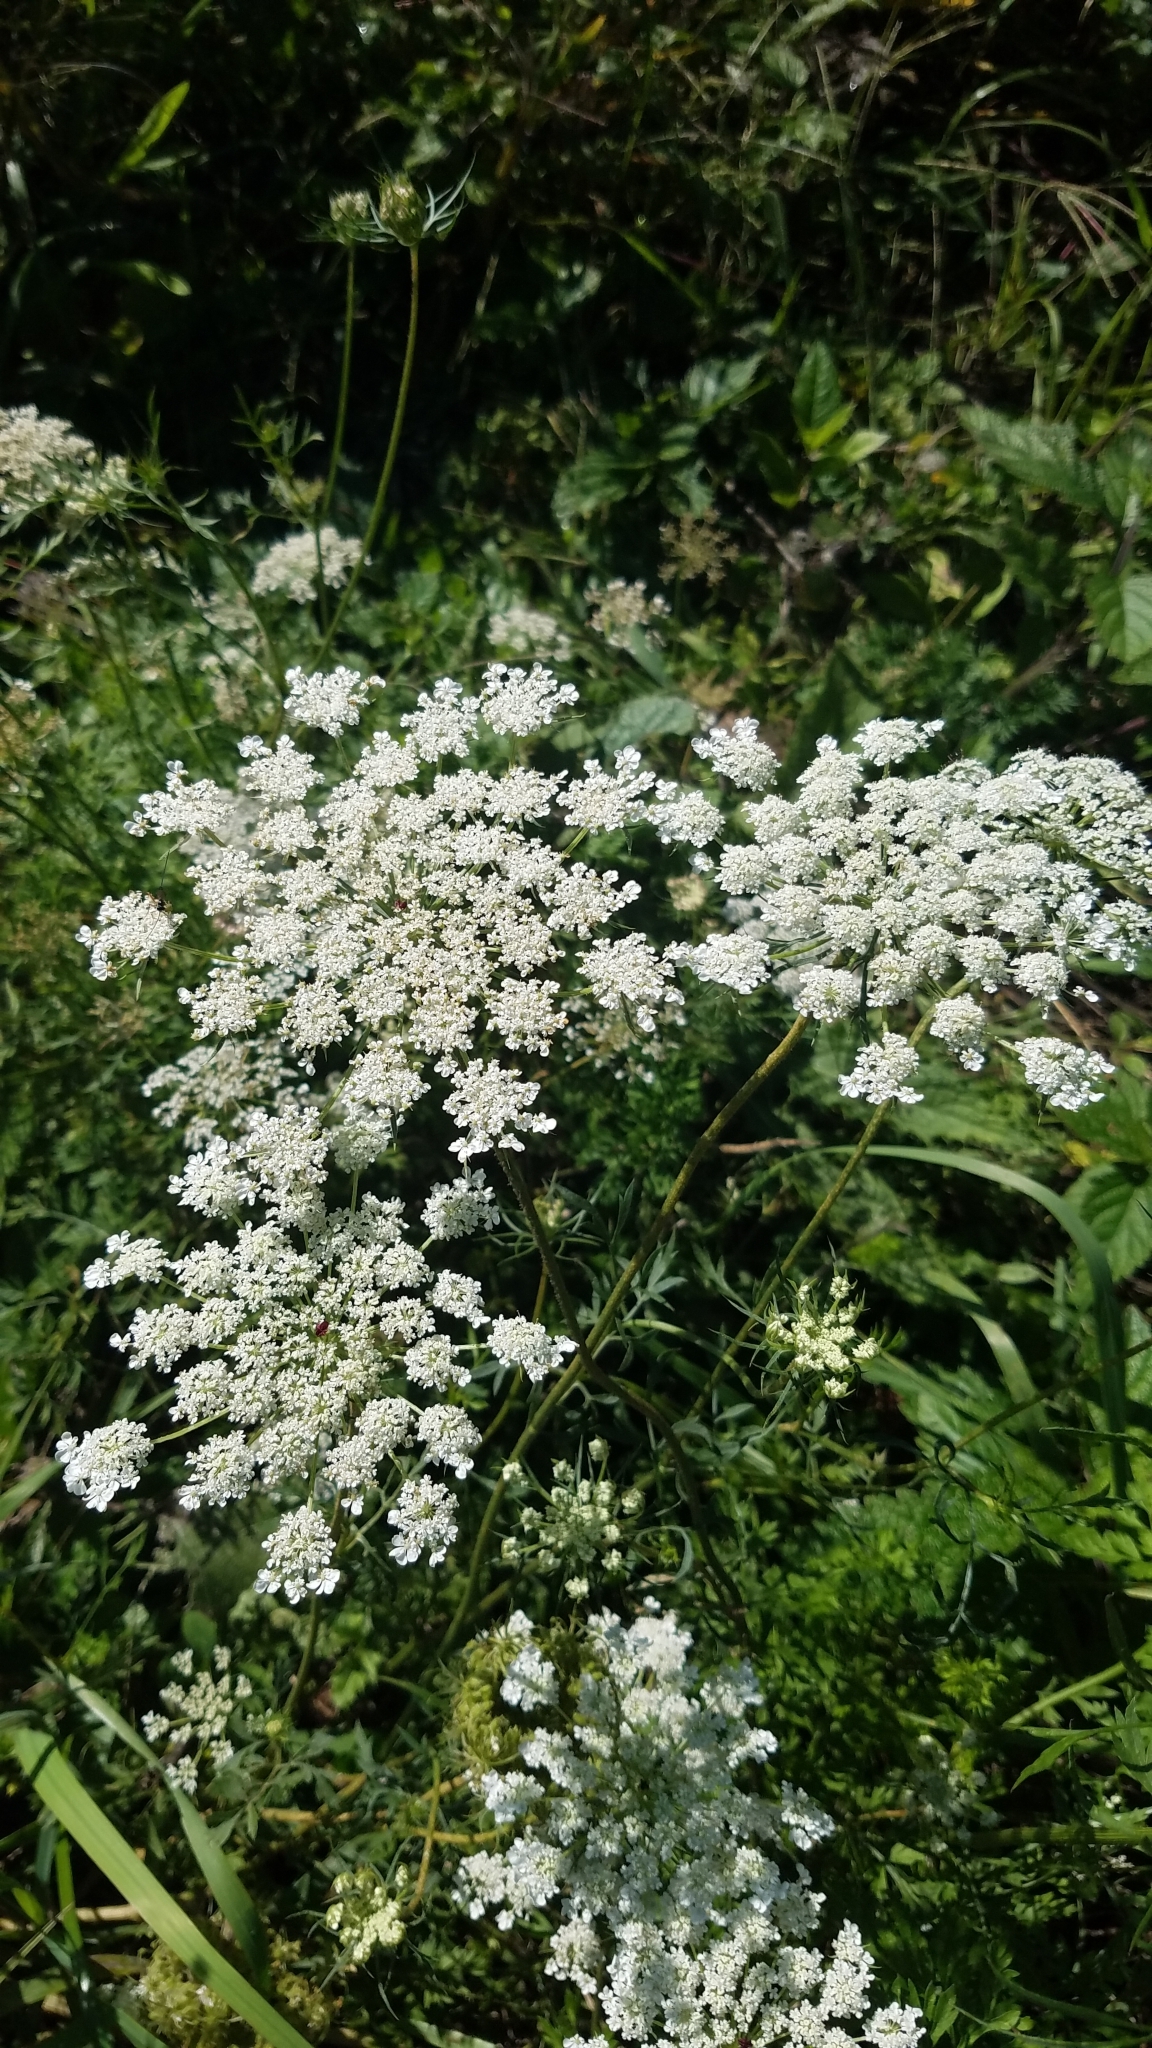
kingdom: Plantae
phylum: Tracheophyta
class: Magnoliopsida
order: Apiales
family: Apiaceae
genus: Daucus
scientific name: Daucus carota
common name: Wild carrot
